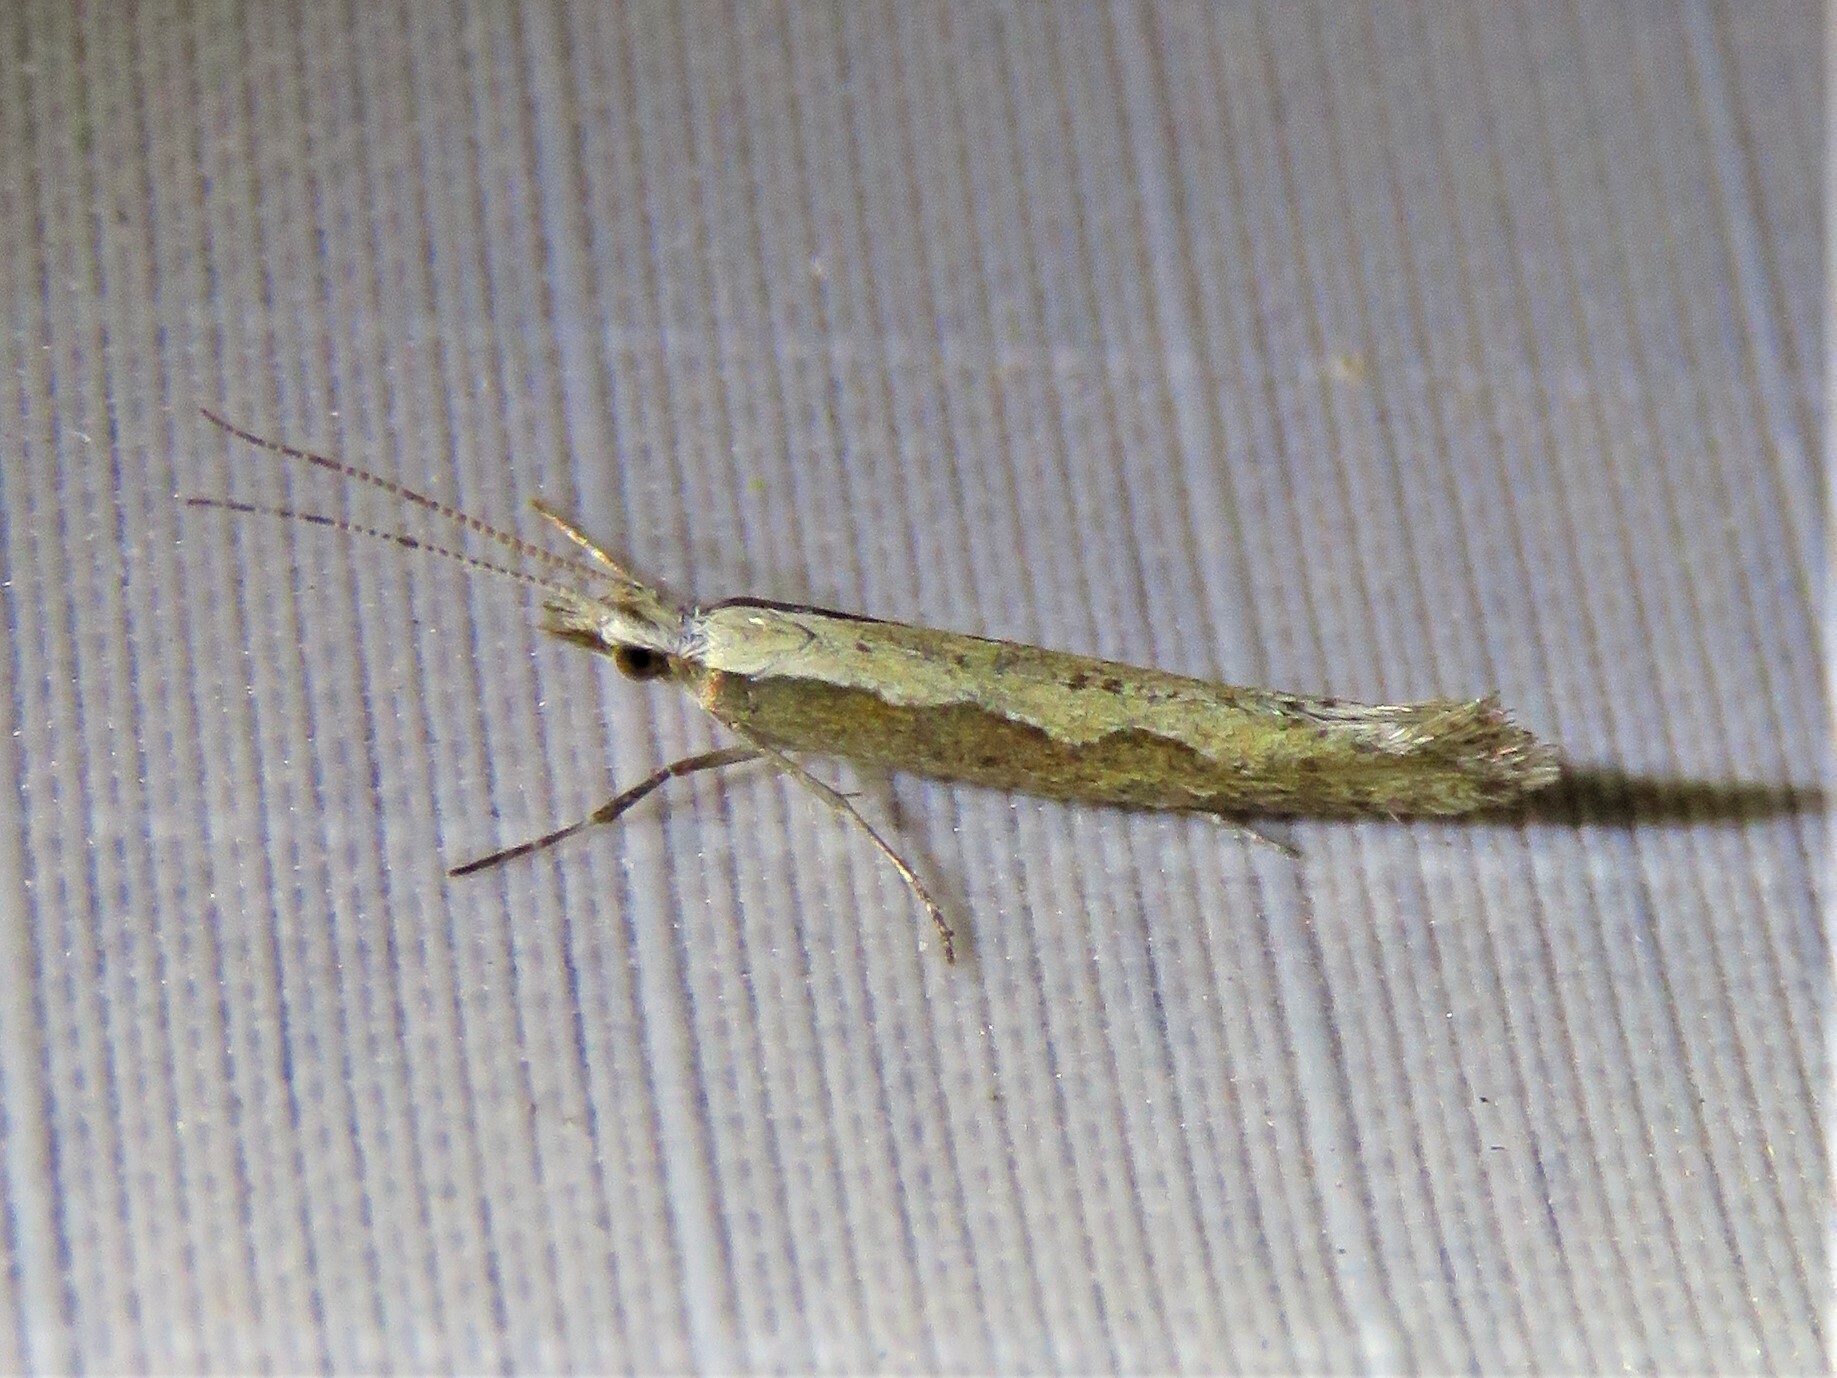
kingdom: Animalia
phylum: Arthropoda
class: Insecta
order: Lepidoptera
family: Plutellidae
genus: Plutella
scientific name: Plutella xylostella
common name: Diamond-back moth
